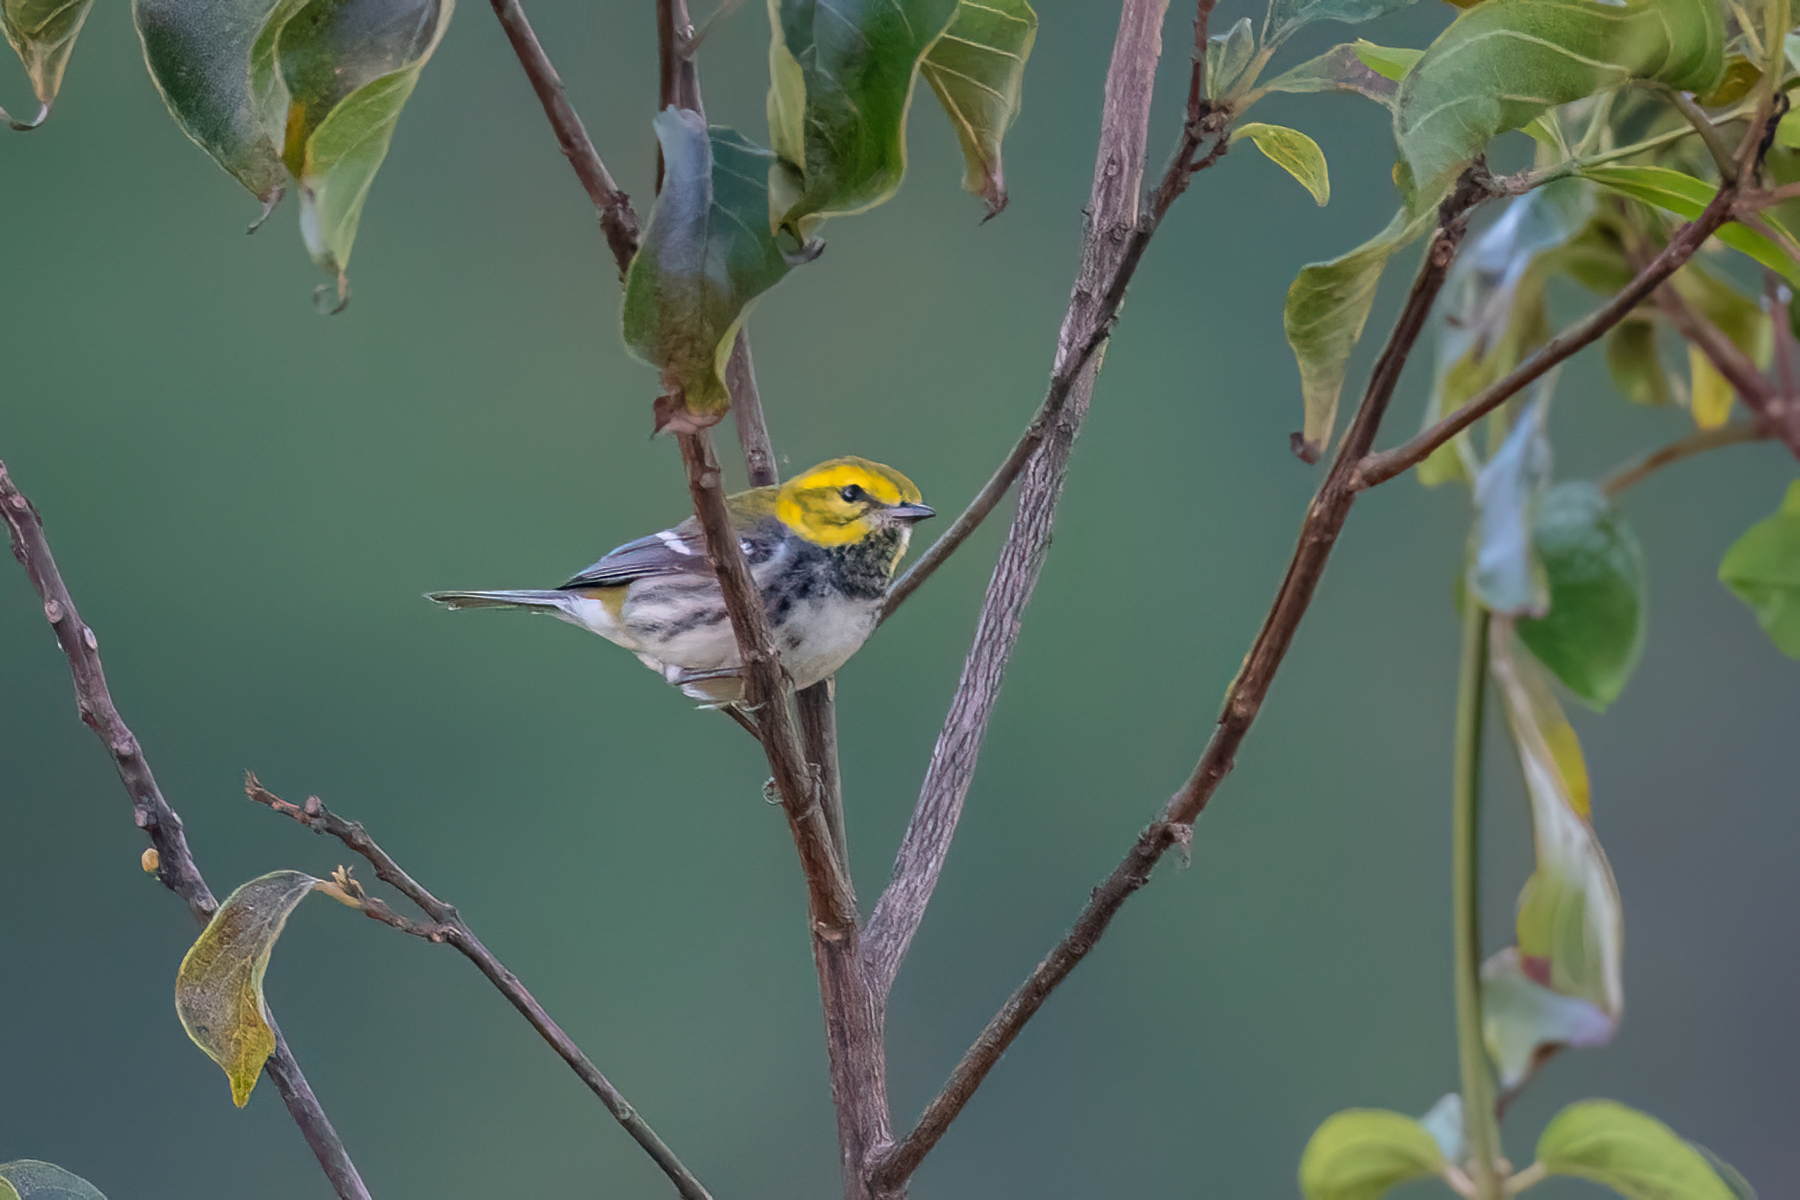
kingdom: Animalia
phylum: Chordata
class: Aves
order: Passeriformes
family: Parulidae
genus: Setophaga
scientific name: Setophaga virens
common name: Black-throated green warbler
